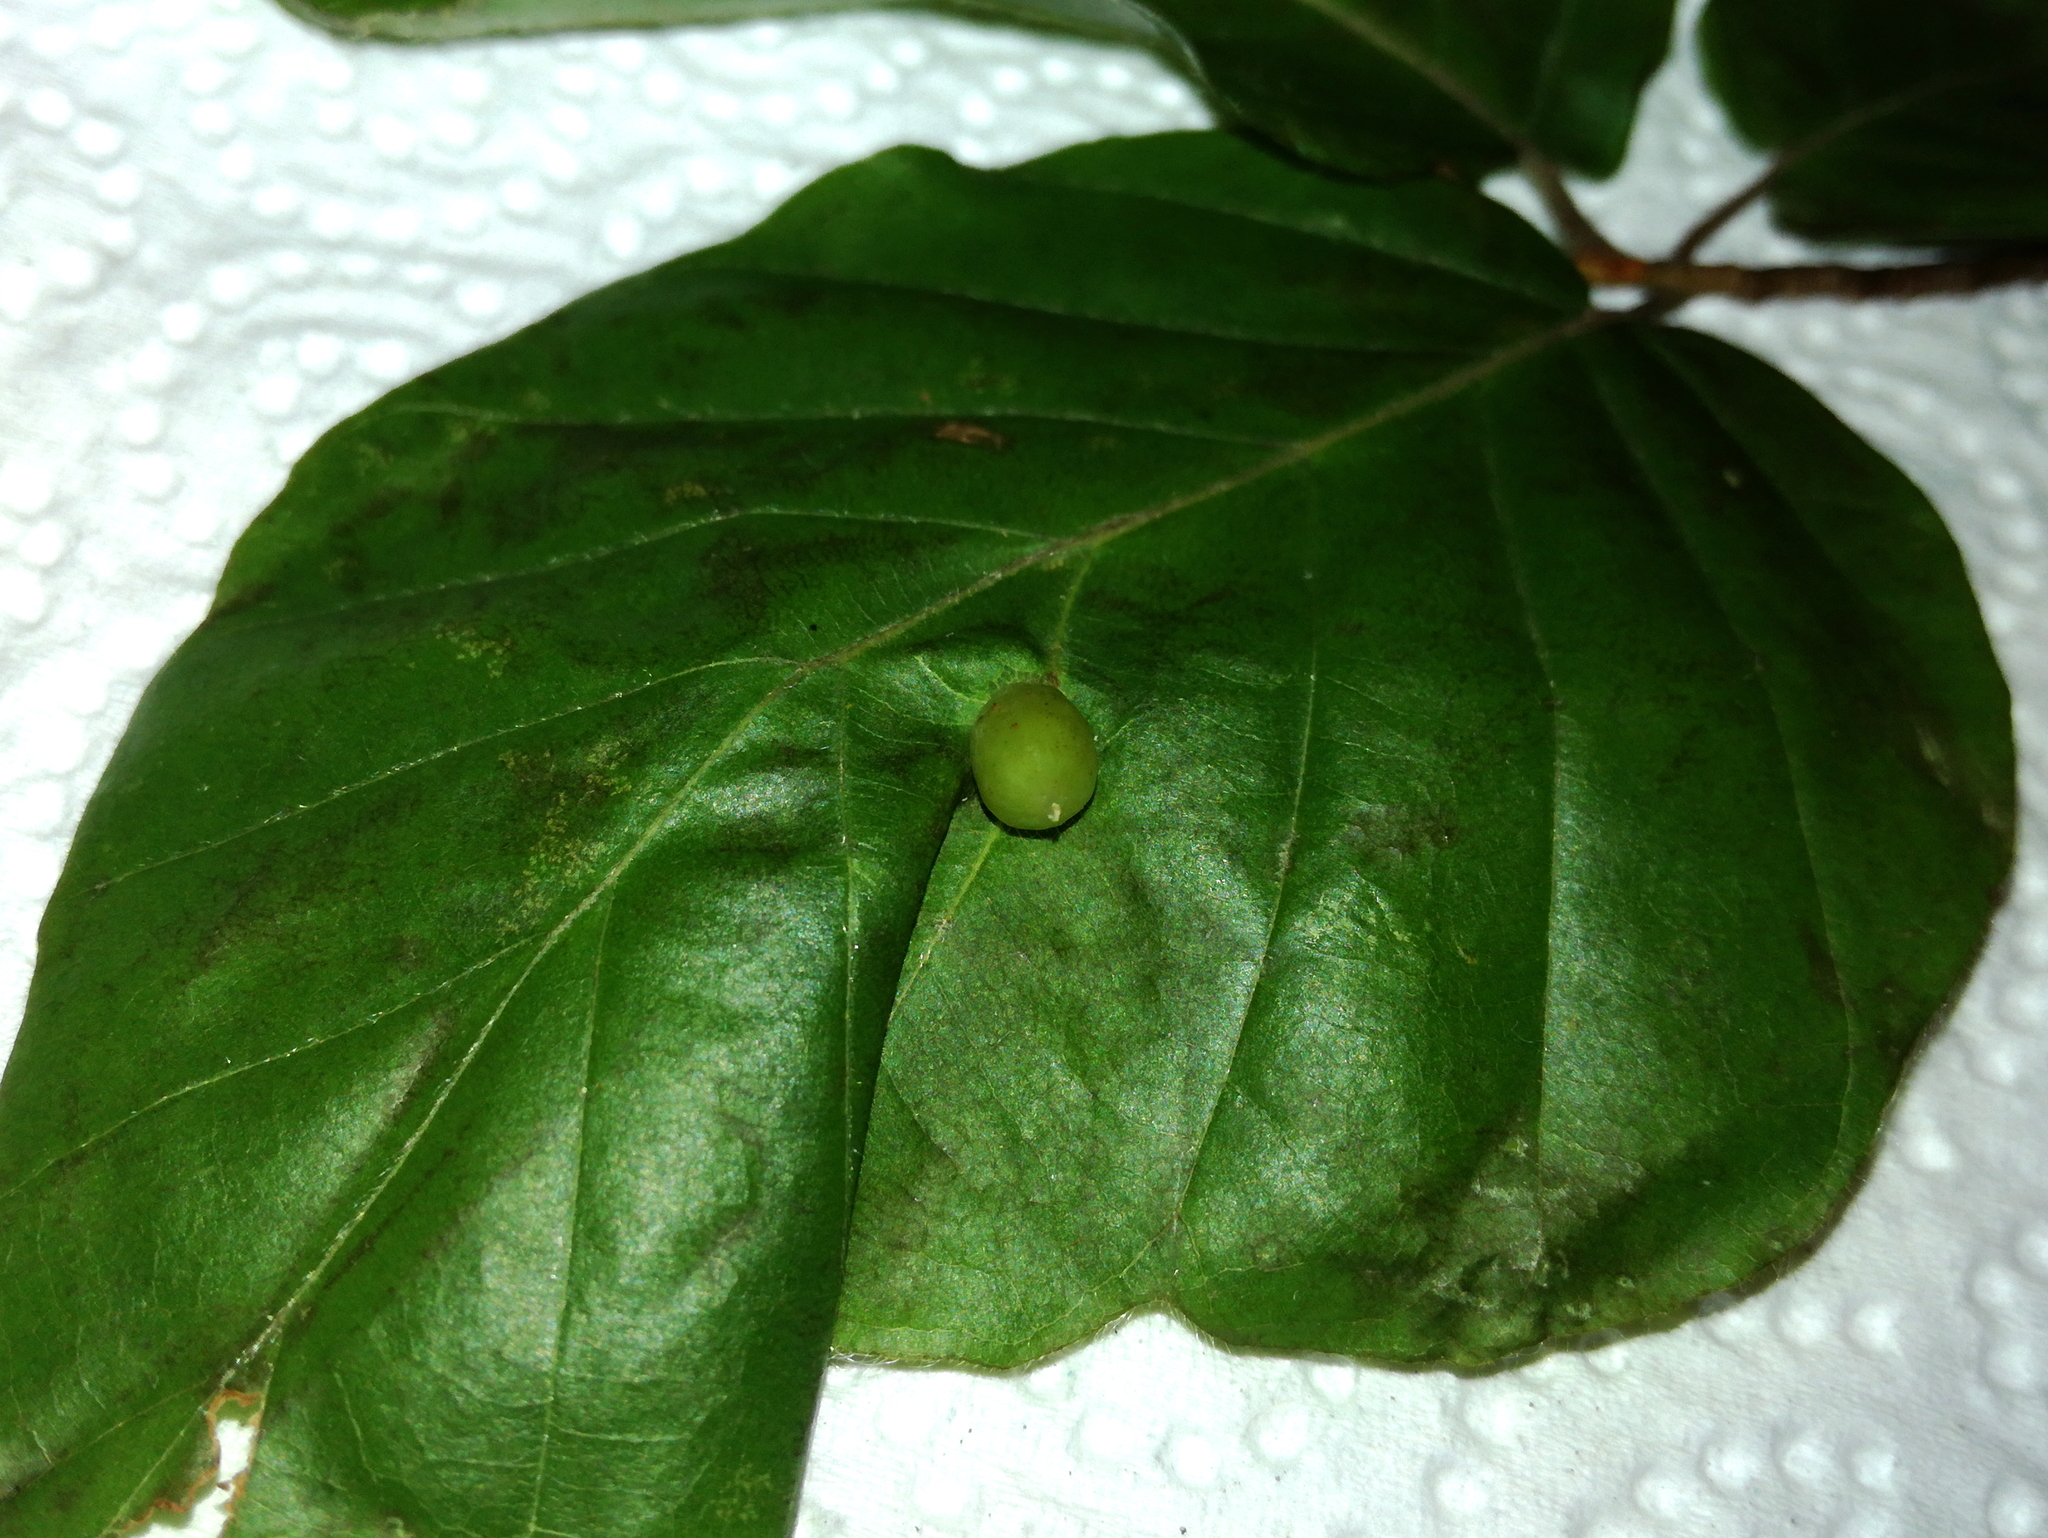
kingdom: Animalia
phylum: Arthropoda
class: Insecta
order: Diptera
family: Cecidomyiidae
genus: Mikiola
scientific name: Mikiola fagi
